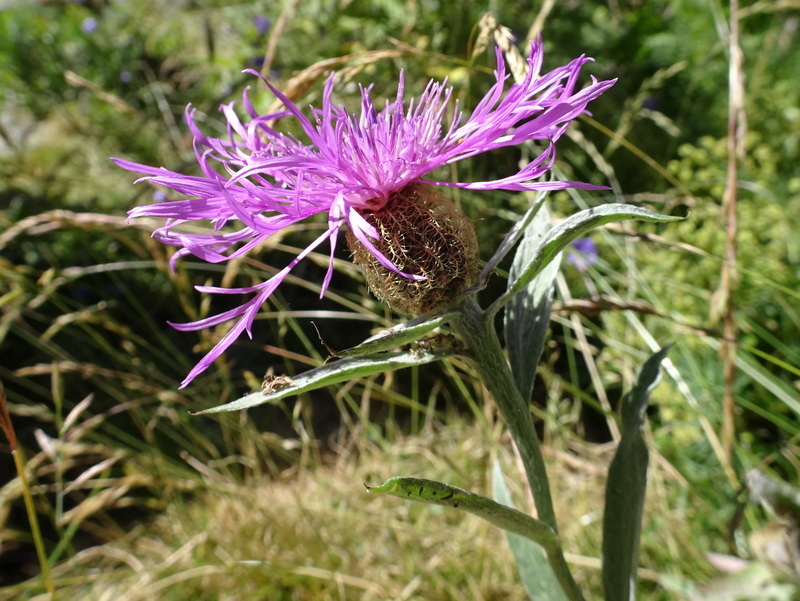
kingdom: Plantae
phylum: Tracheophyta
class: Magnoliopsida
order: Asterales
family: Asteraceae
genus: Centaurea
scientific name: Centaurea uniflora
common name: Singleflower knapweed
